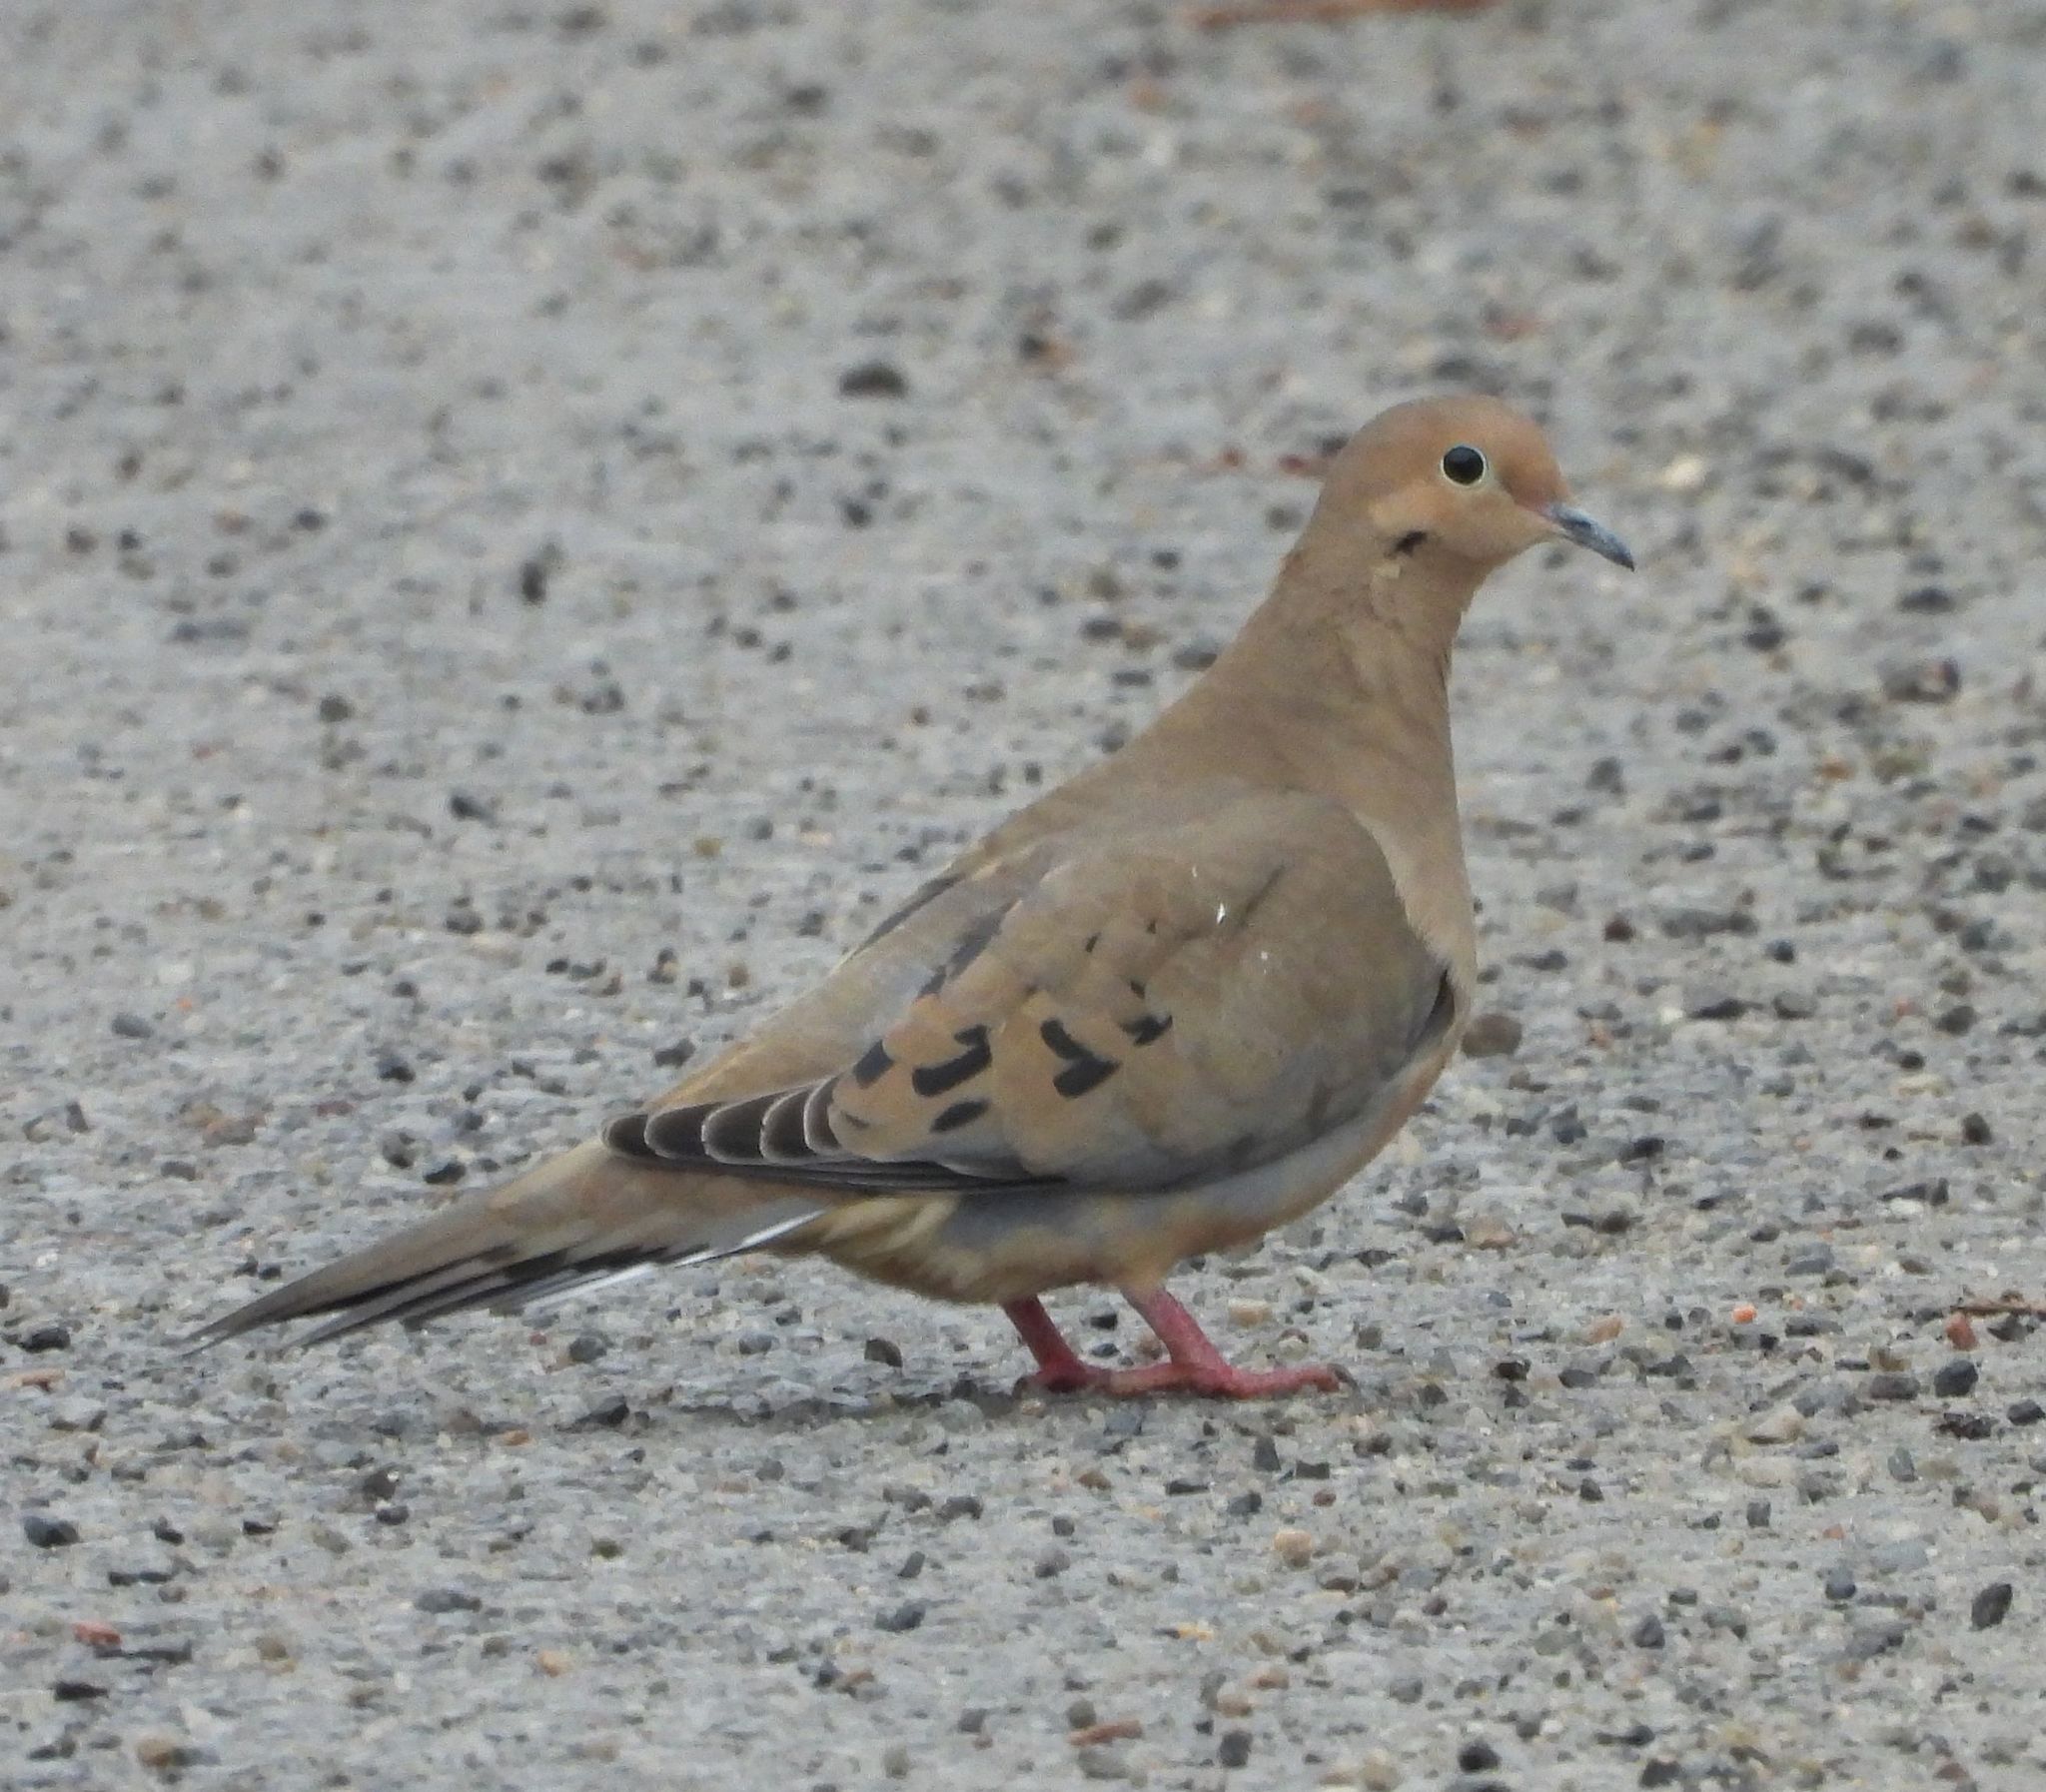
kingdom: Animalia
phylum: Chordata
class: Aves
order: Columbiformes
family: Columbidae
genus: Zenaida
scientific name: Zenaida macroura
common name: Mourning dove
